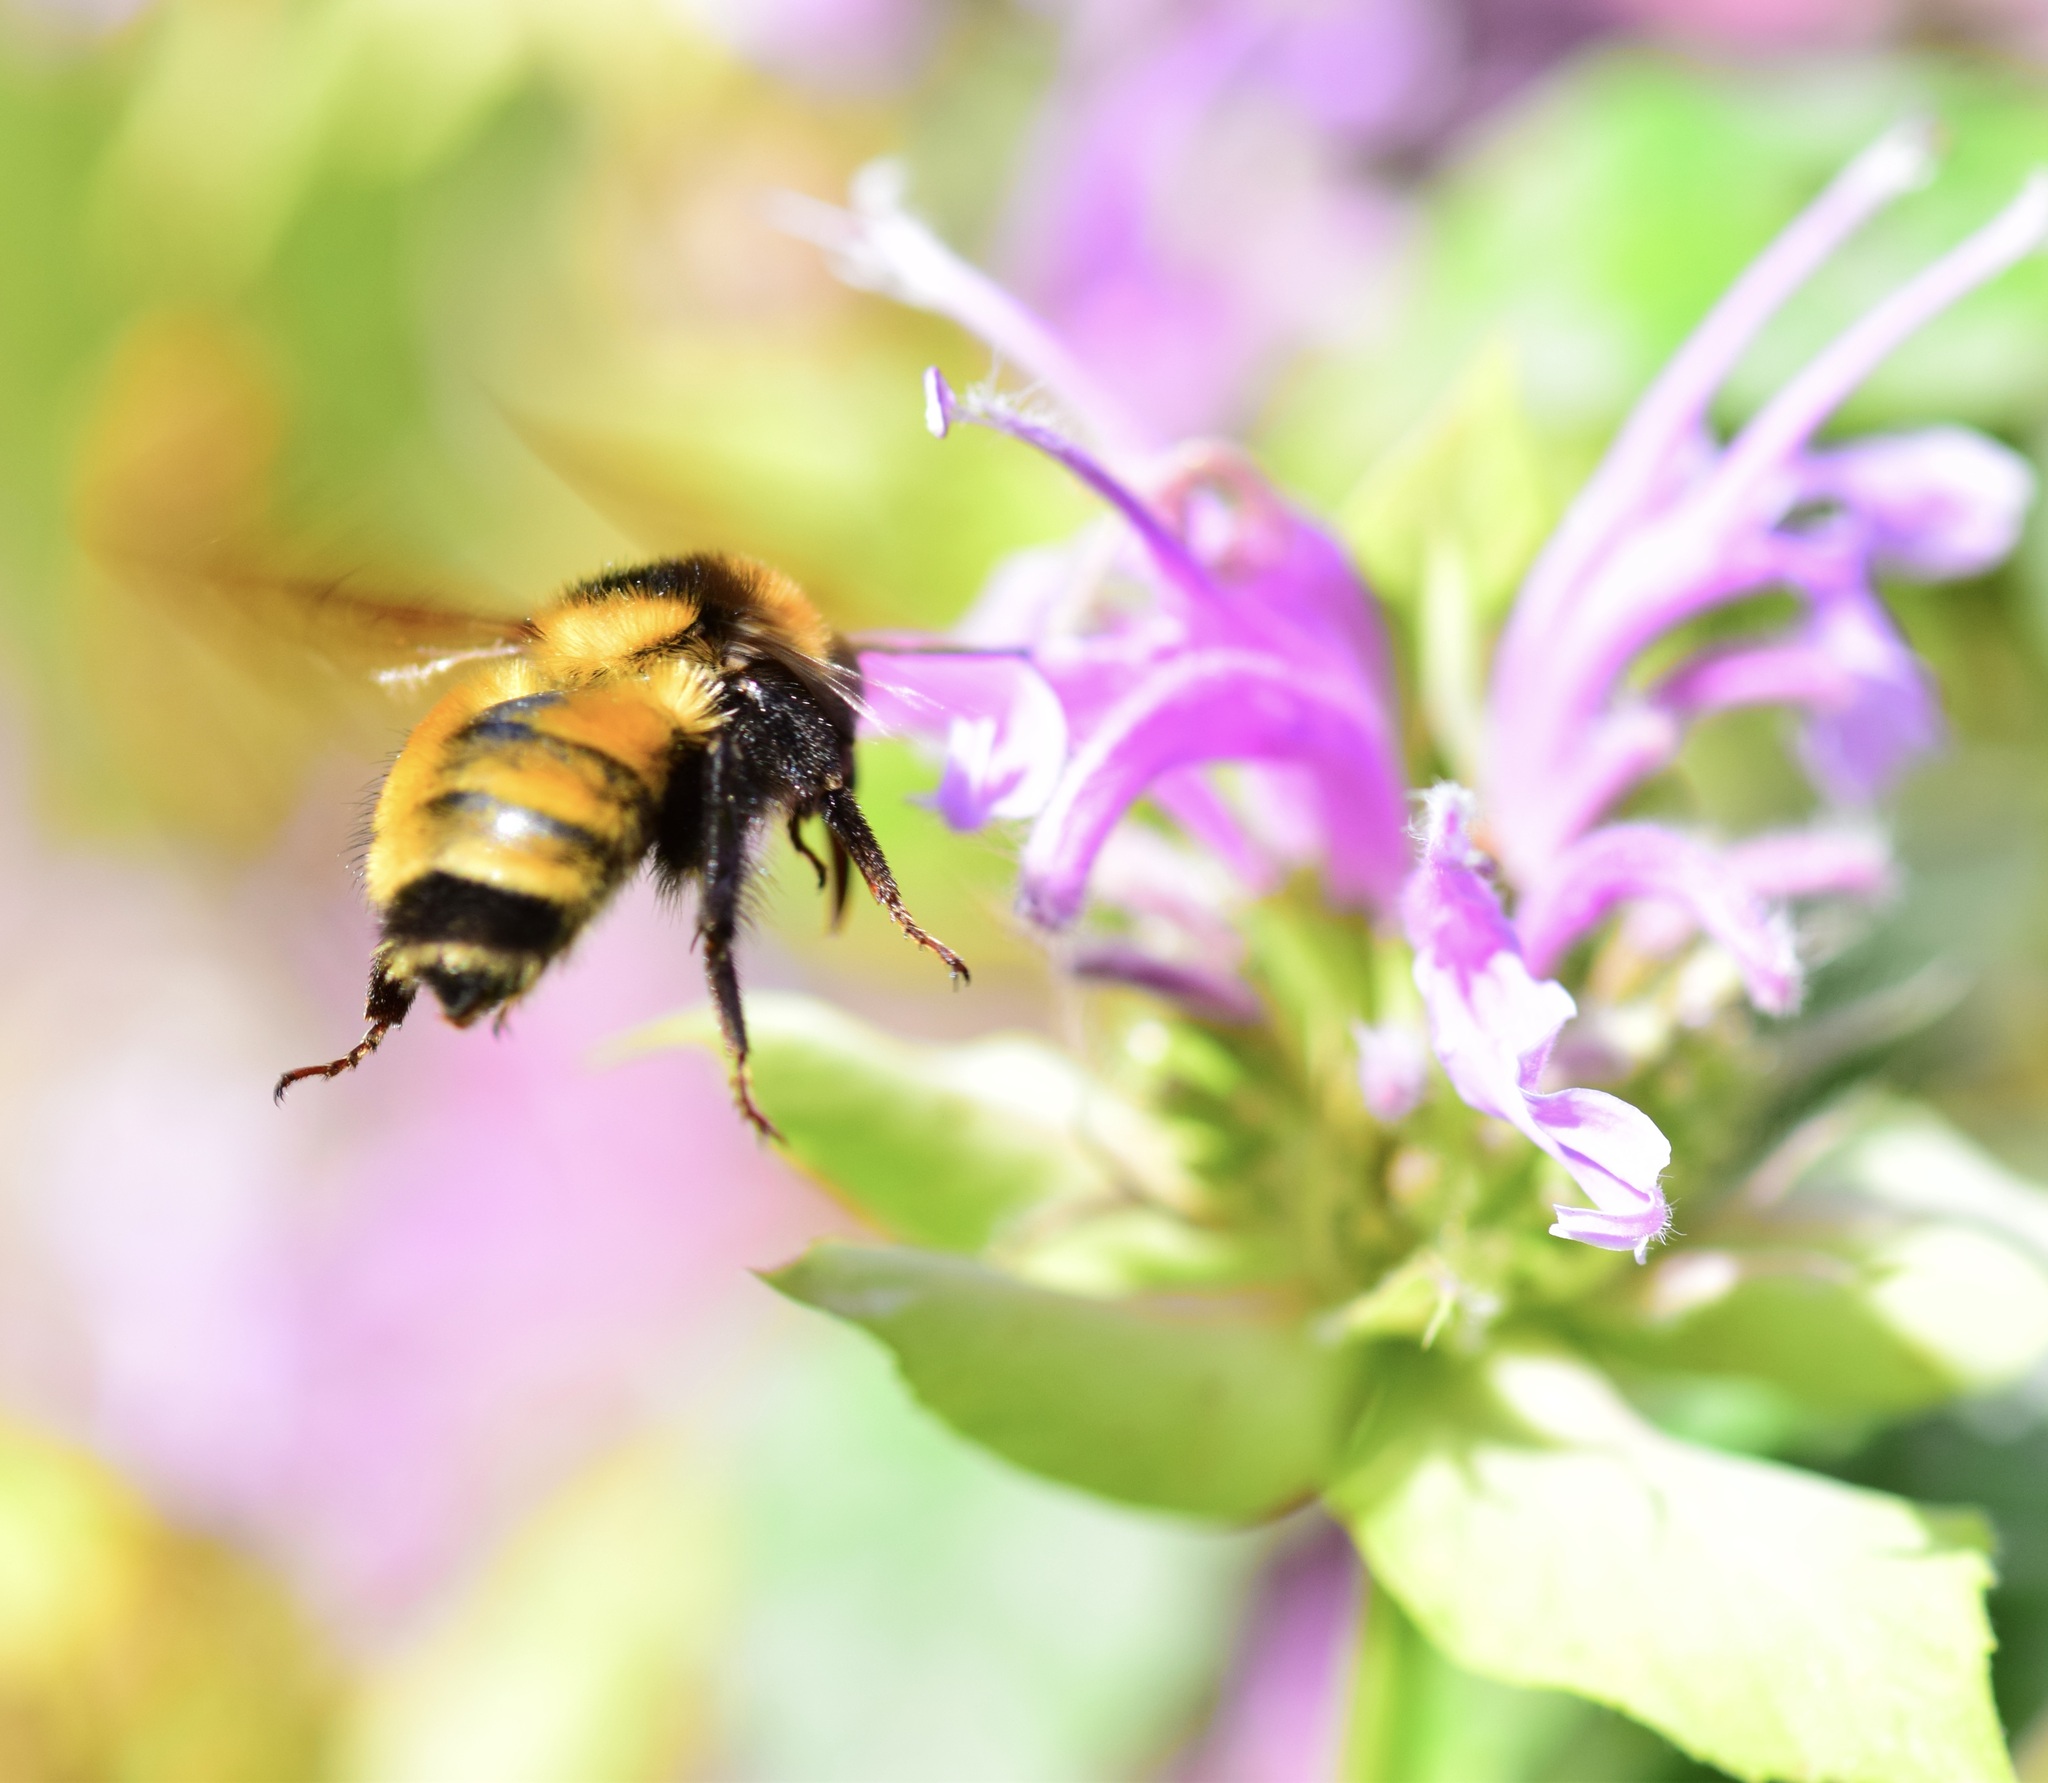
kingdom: Animalia
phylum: Arthropoda
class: Insecta
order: Hymenoptera
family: Apidae
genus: Bombus
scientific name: Bombus borealis
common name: Northern amber bumble bee
